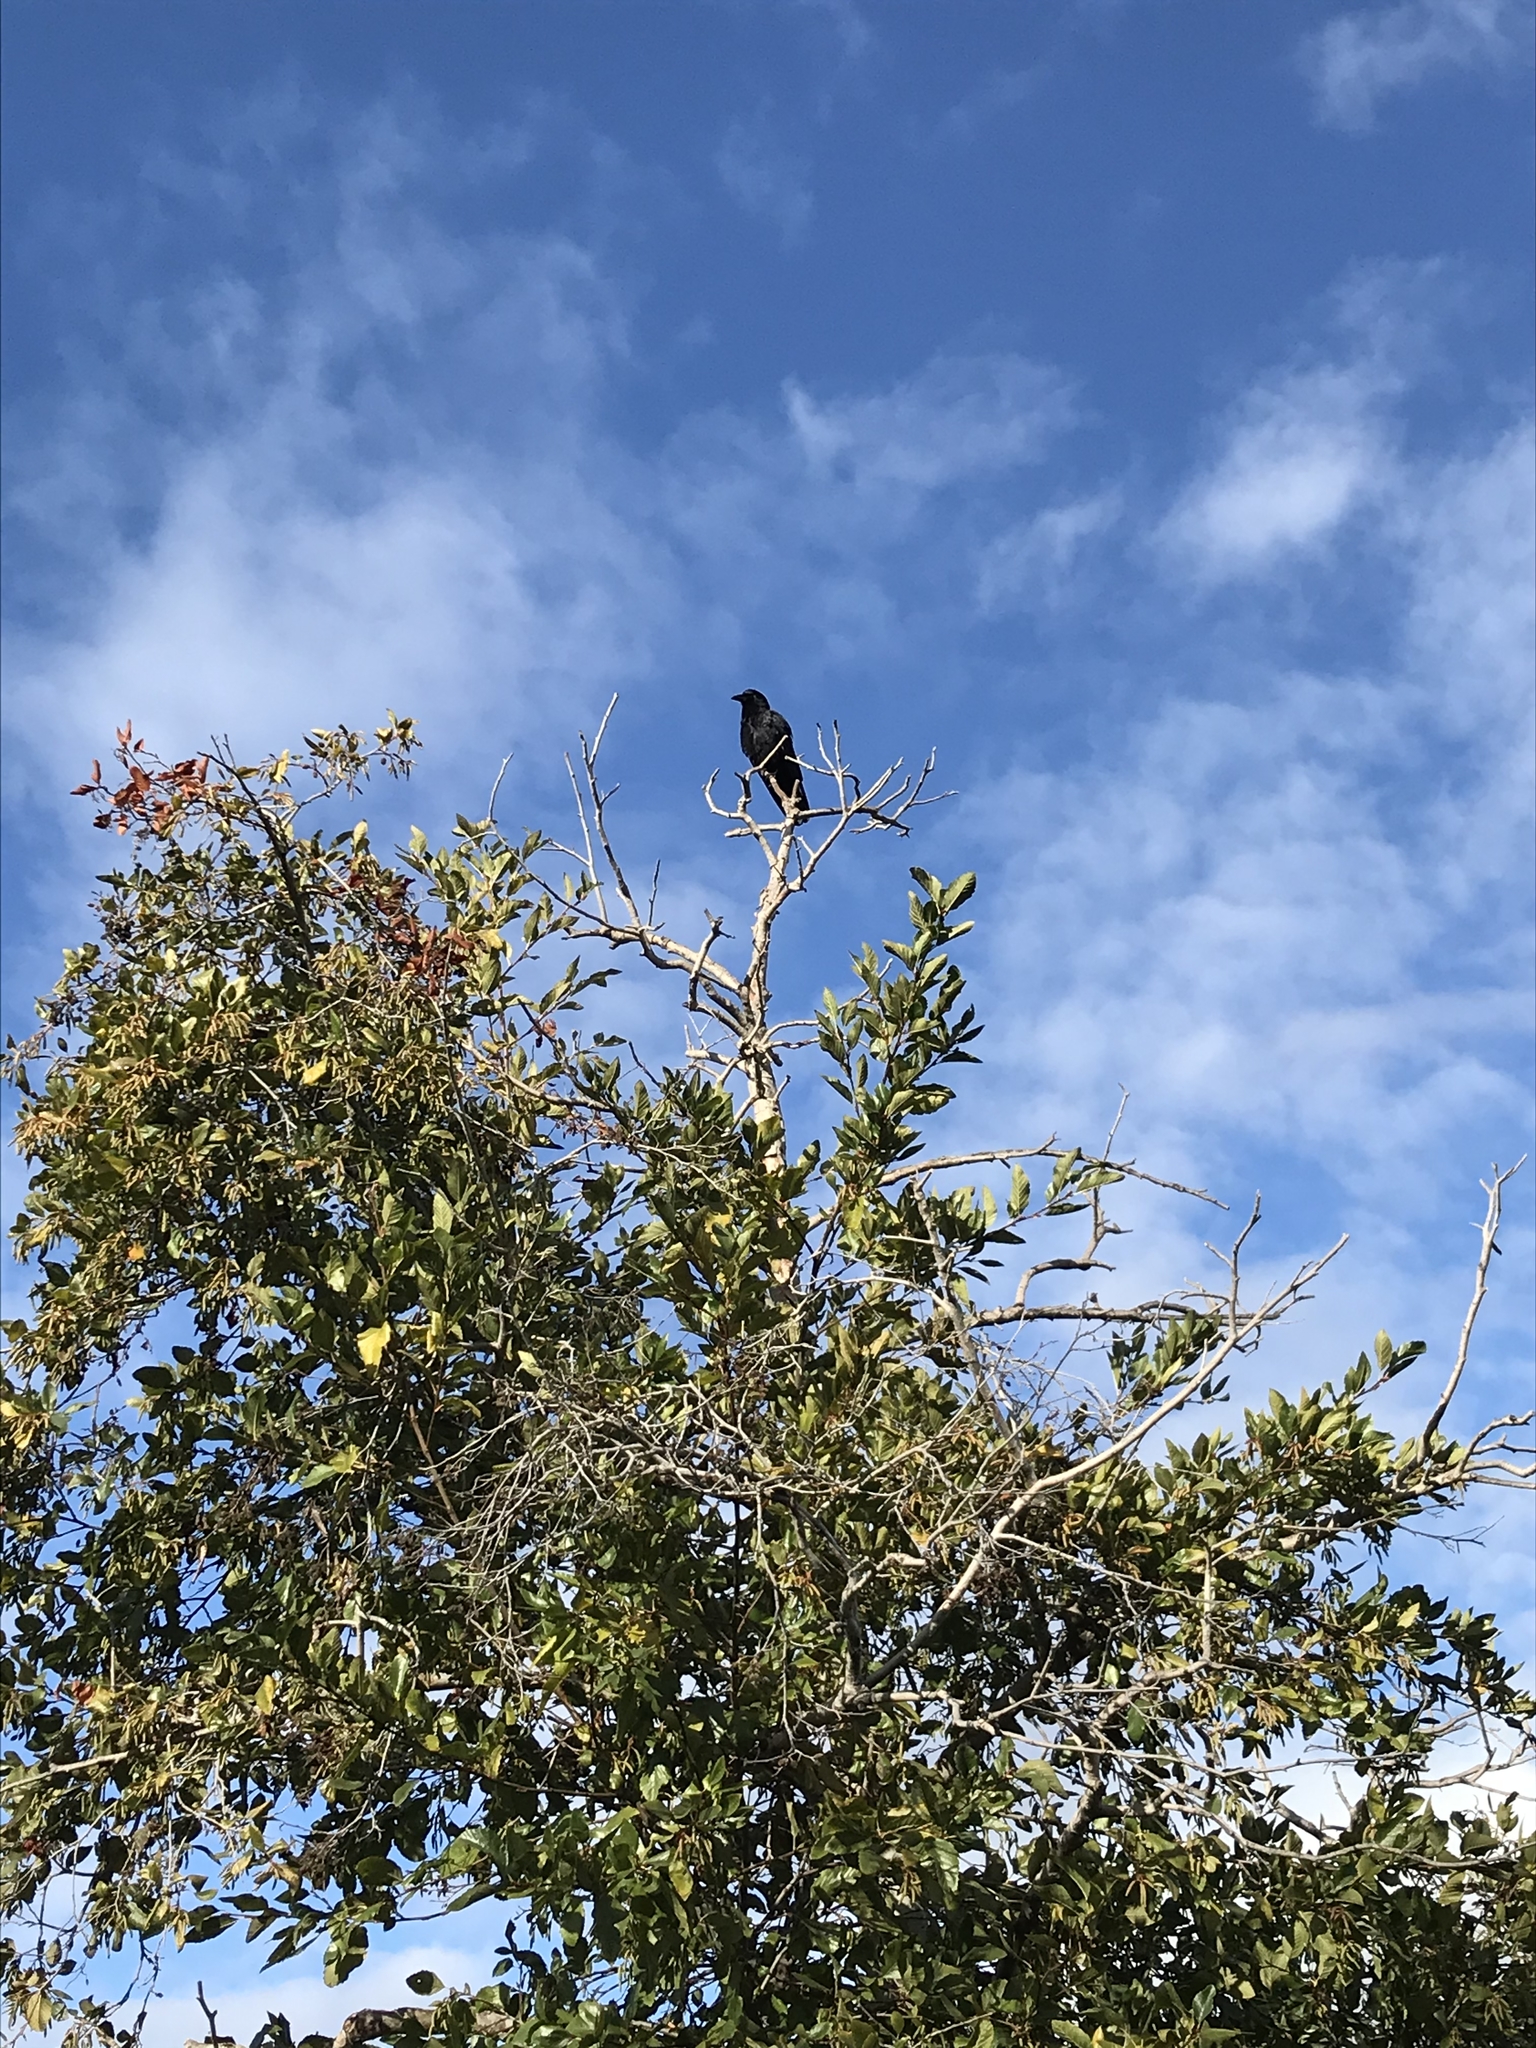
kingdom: Animalia
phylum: Chordata
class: Aves
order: Passeriformes
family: Corvidae
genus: Corvus
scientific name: Corvus brachyrhynchos
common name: American crow
